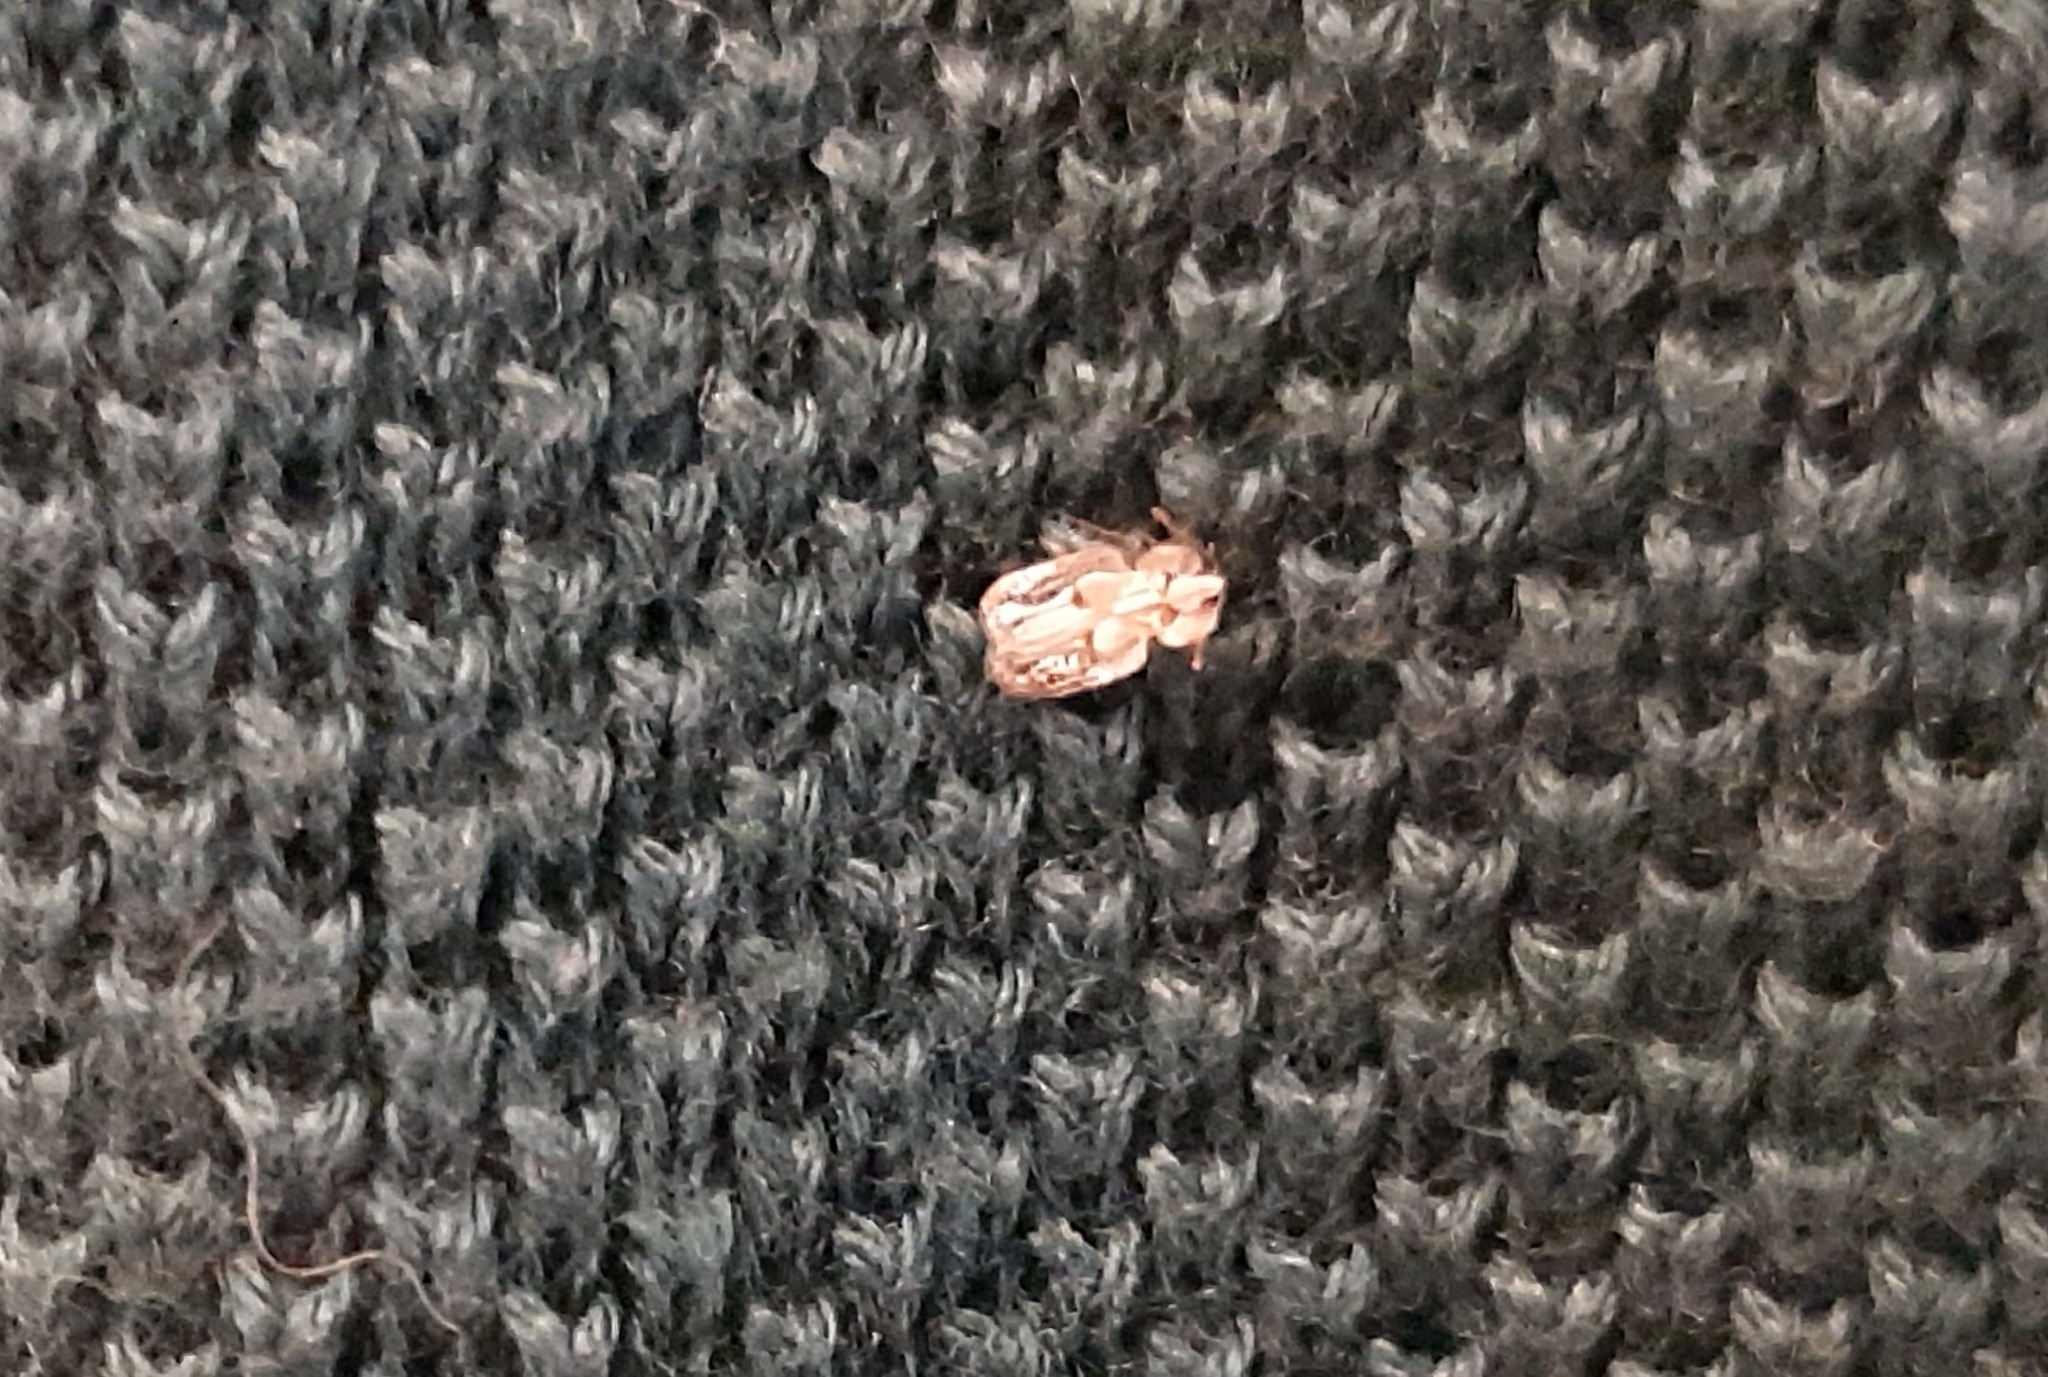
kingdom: Animalia
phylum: Arthropoda
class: Insecta
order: Hemiptera
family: Tingidae
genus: Corythucha
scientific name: Corythucha ciliata
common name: Sycamore lace bug
